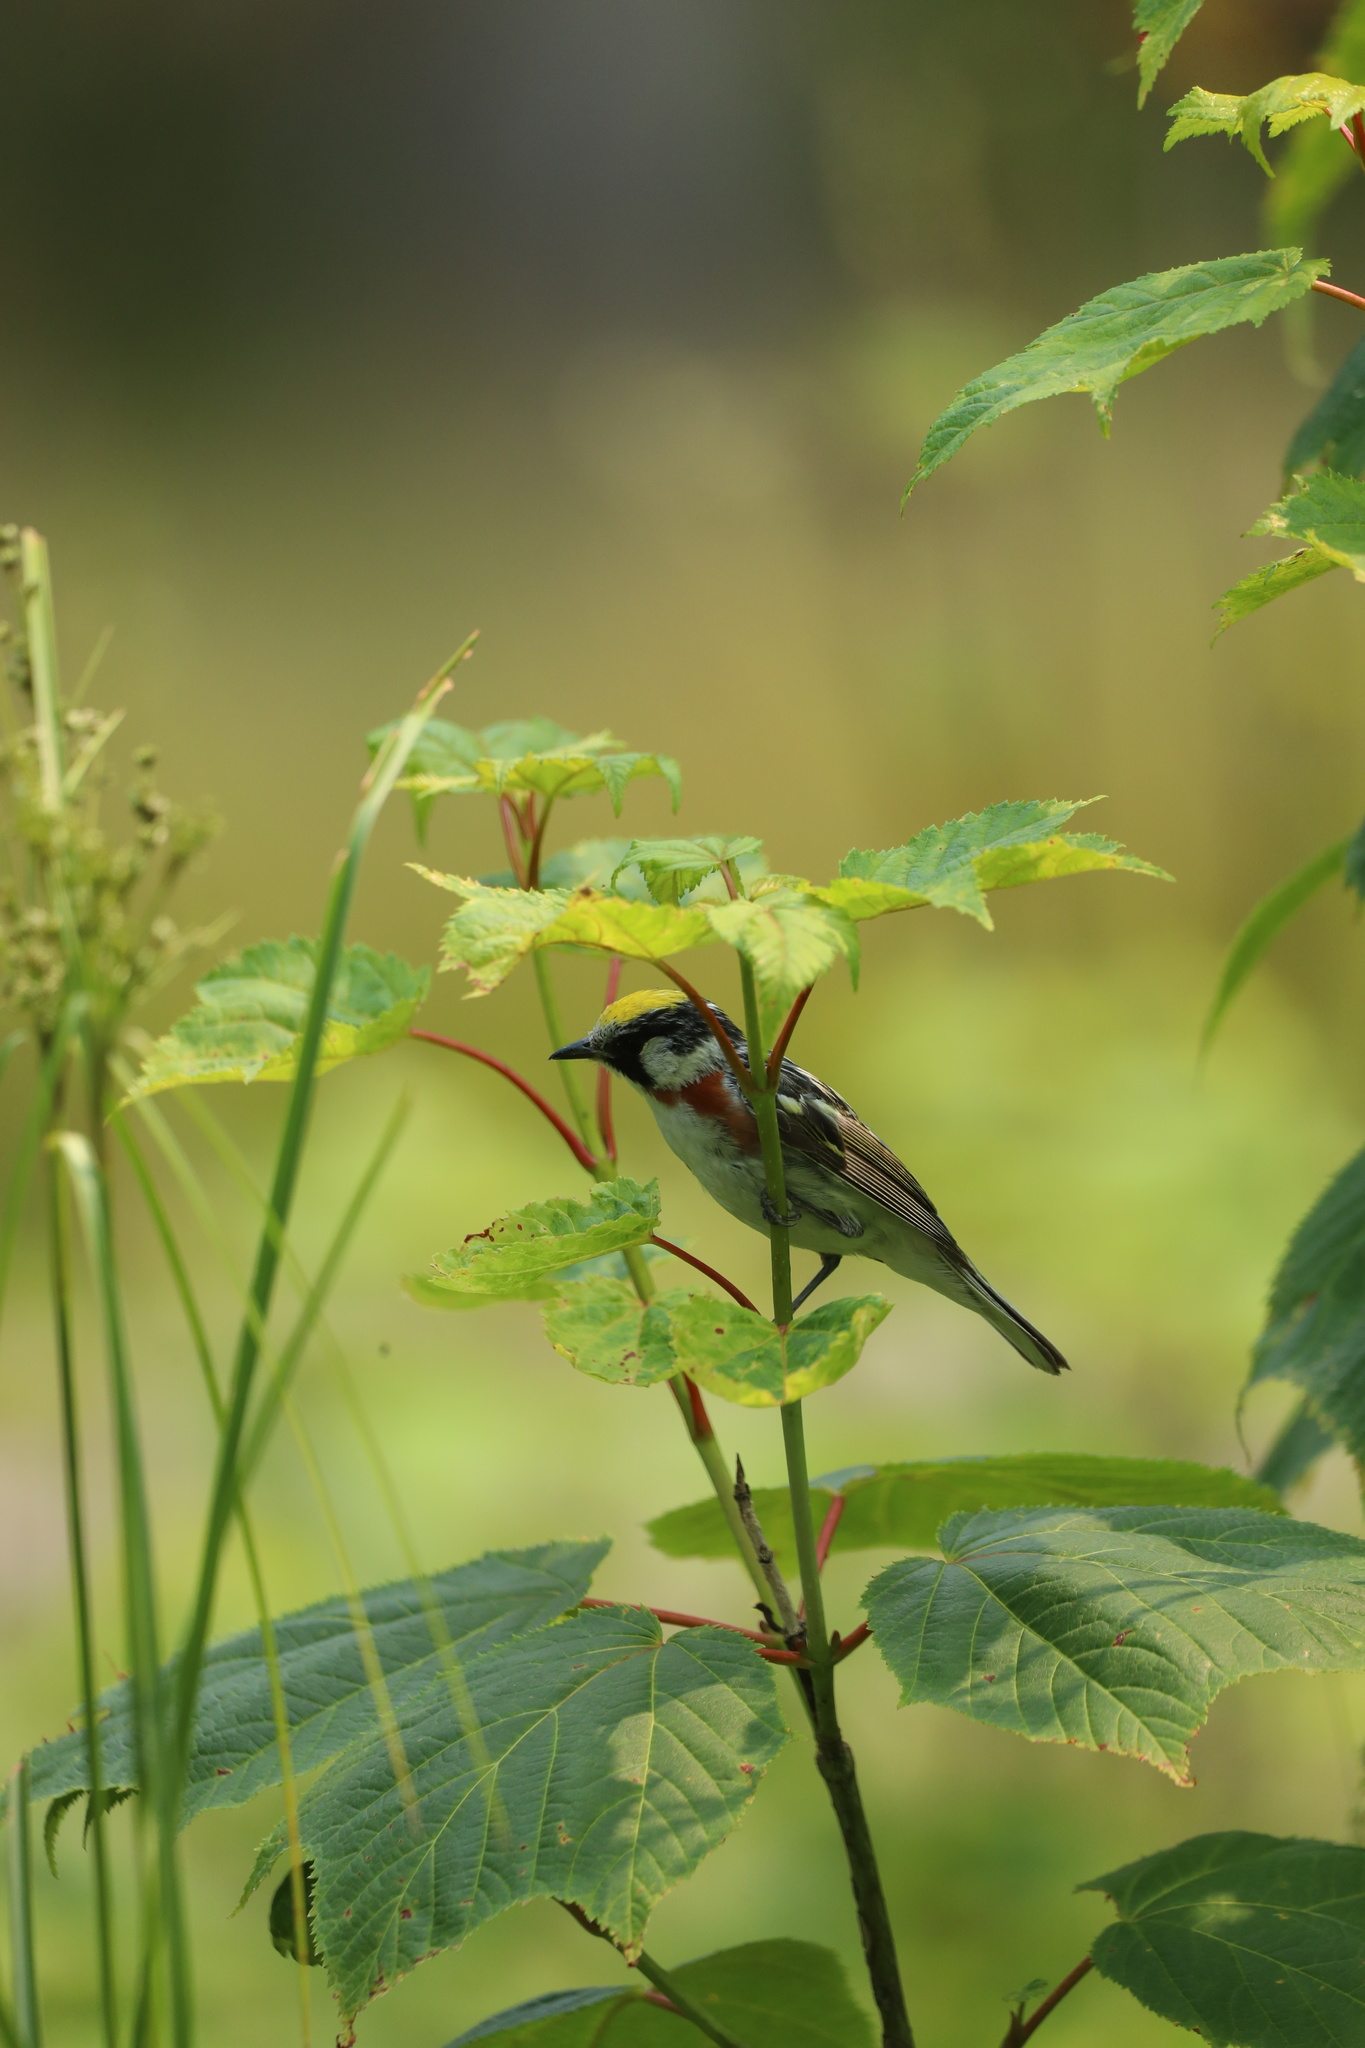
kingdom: Animalia
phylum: Chordata
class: Aves
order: Passeriformes
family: Parulidae
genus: Setophaga
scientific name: Setophaga pensylvanica
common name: Chestnut-sided warbler
